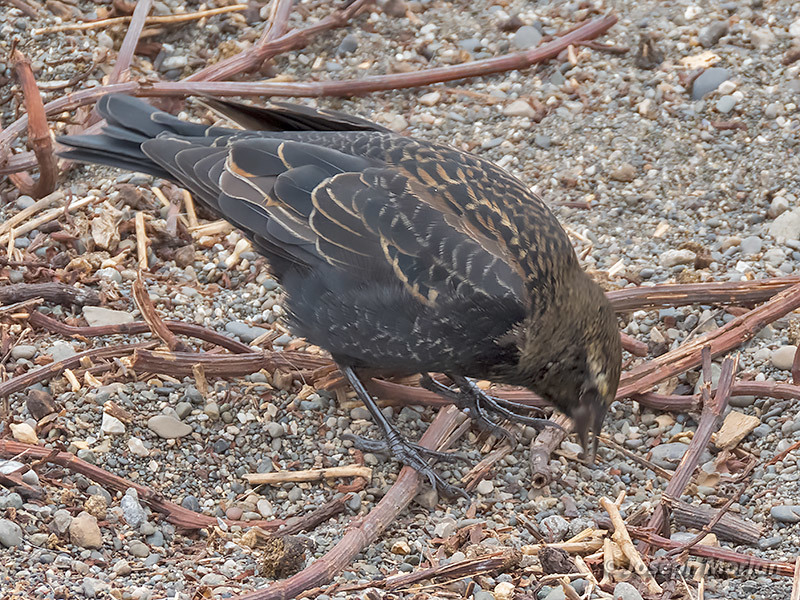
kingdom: Animalia
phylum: Chordata
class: Aves
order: Passeriformes
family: Icteridae
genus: Agelaius
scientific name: Agelaius phoeniceus
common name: Red-winged blackbird
